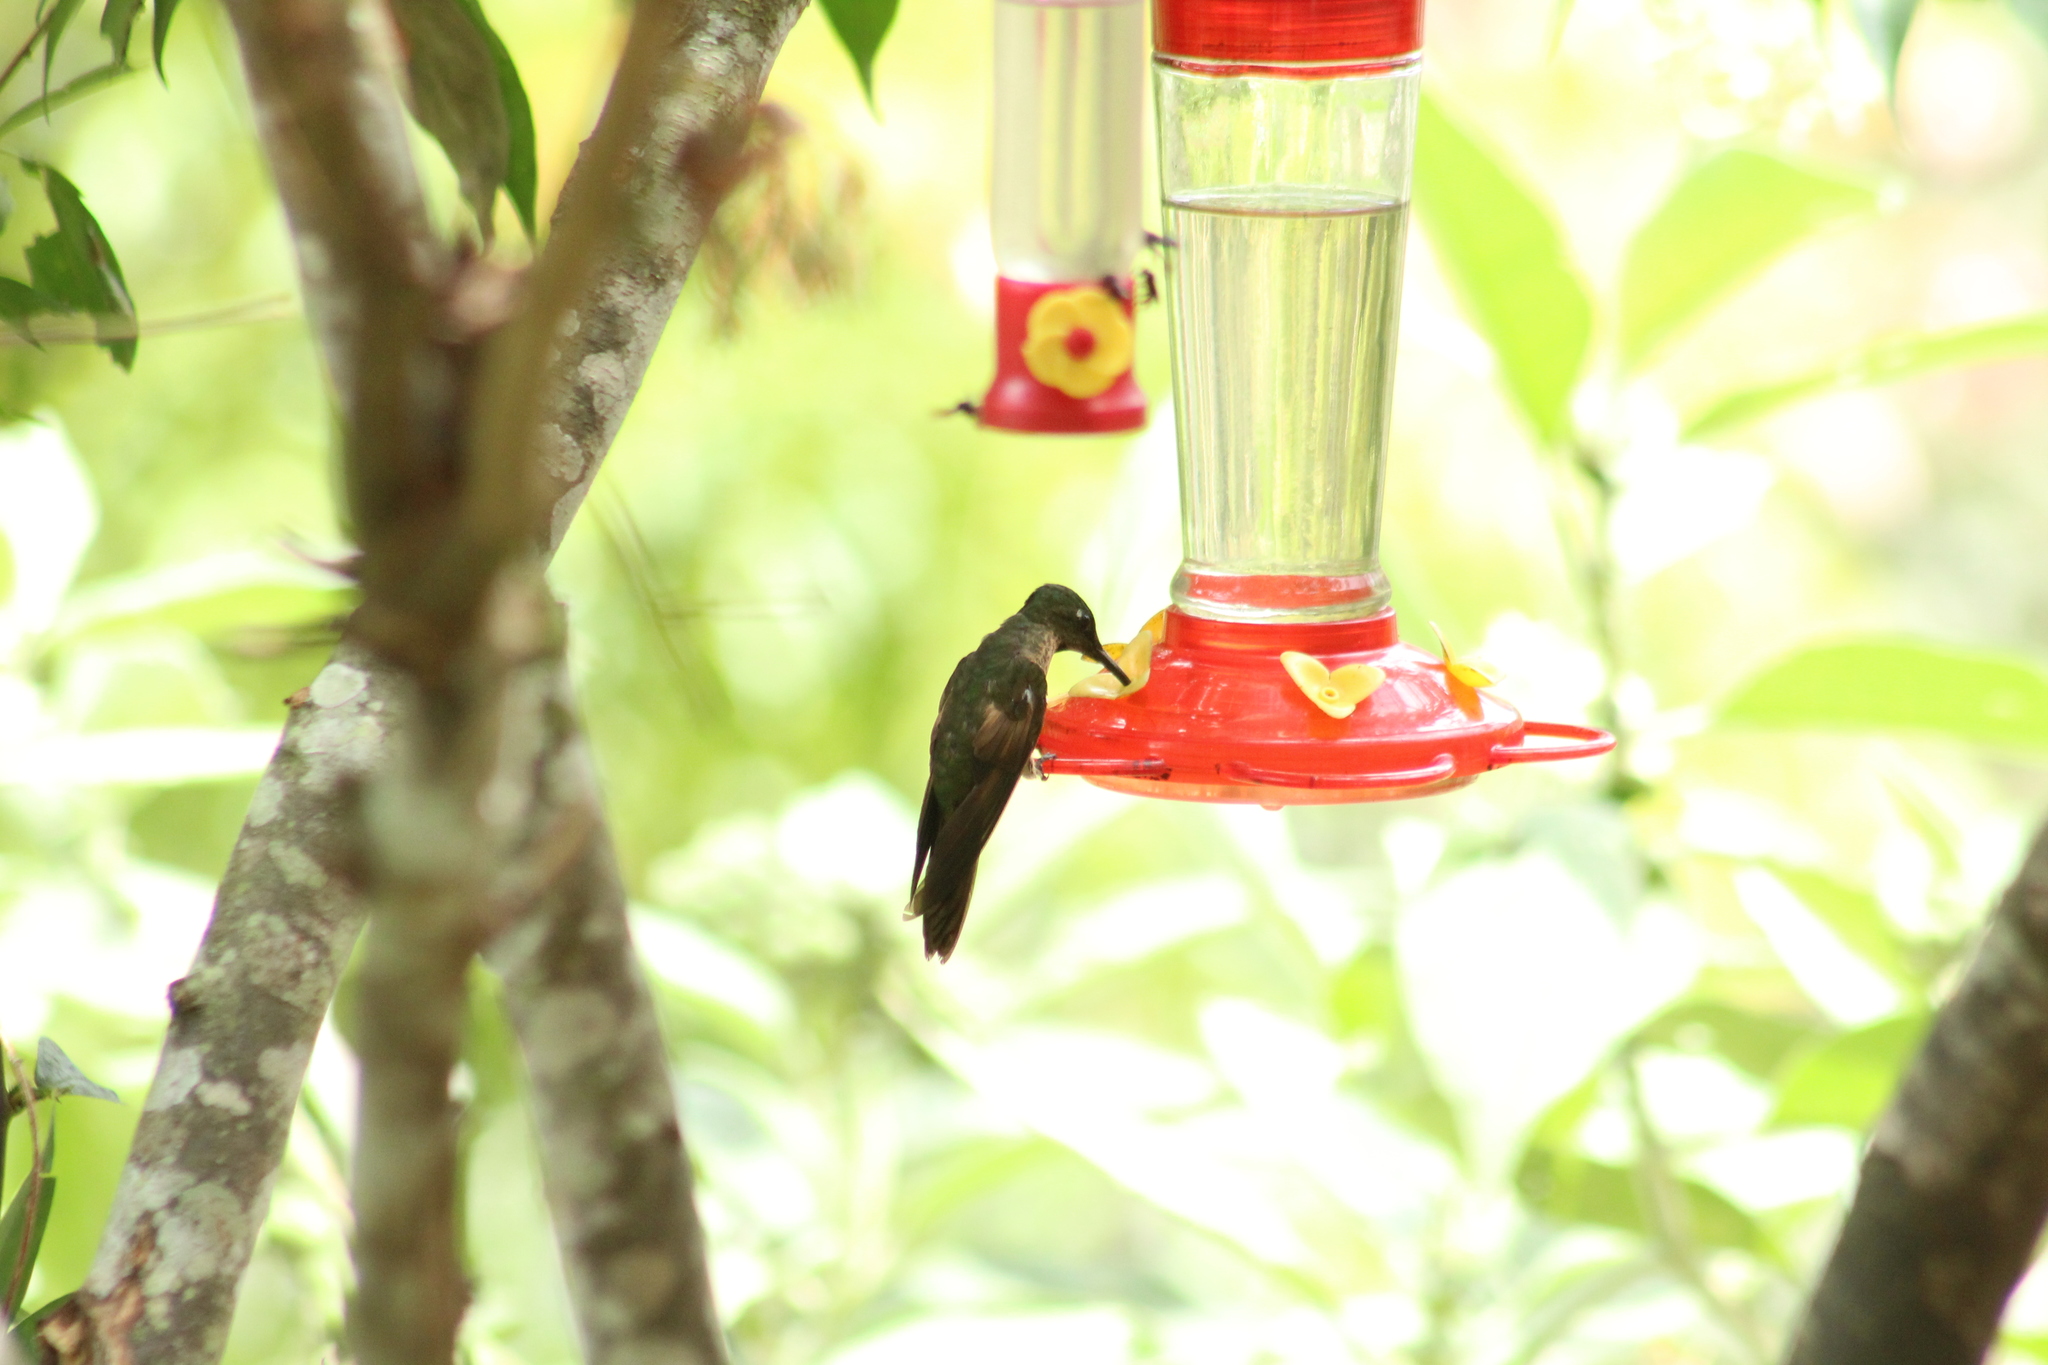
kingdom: Animalia
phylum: Chordata
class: Aves
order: Apodiformes
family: Trochilidae
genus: Heliodoxa
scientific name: Heliodoxa rubinoides
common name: Fawn-breasted brilliant
